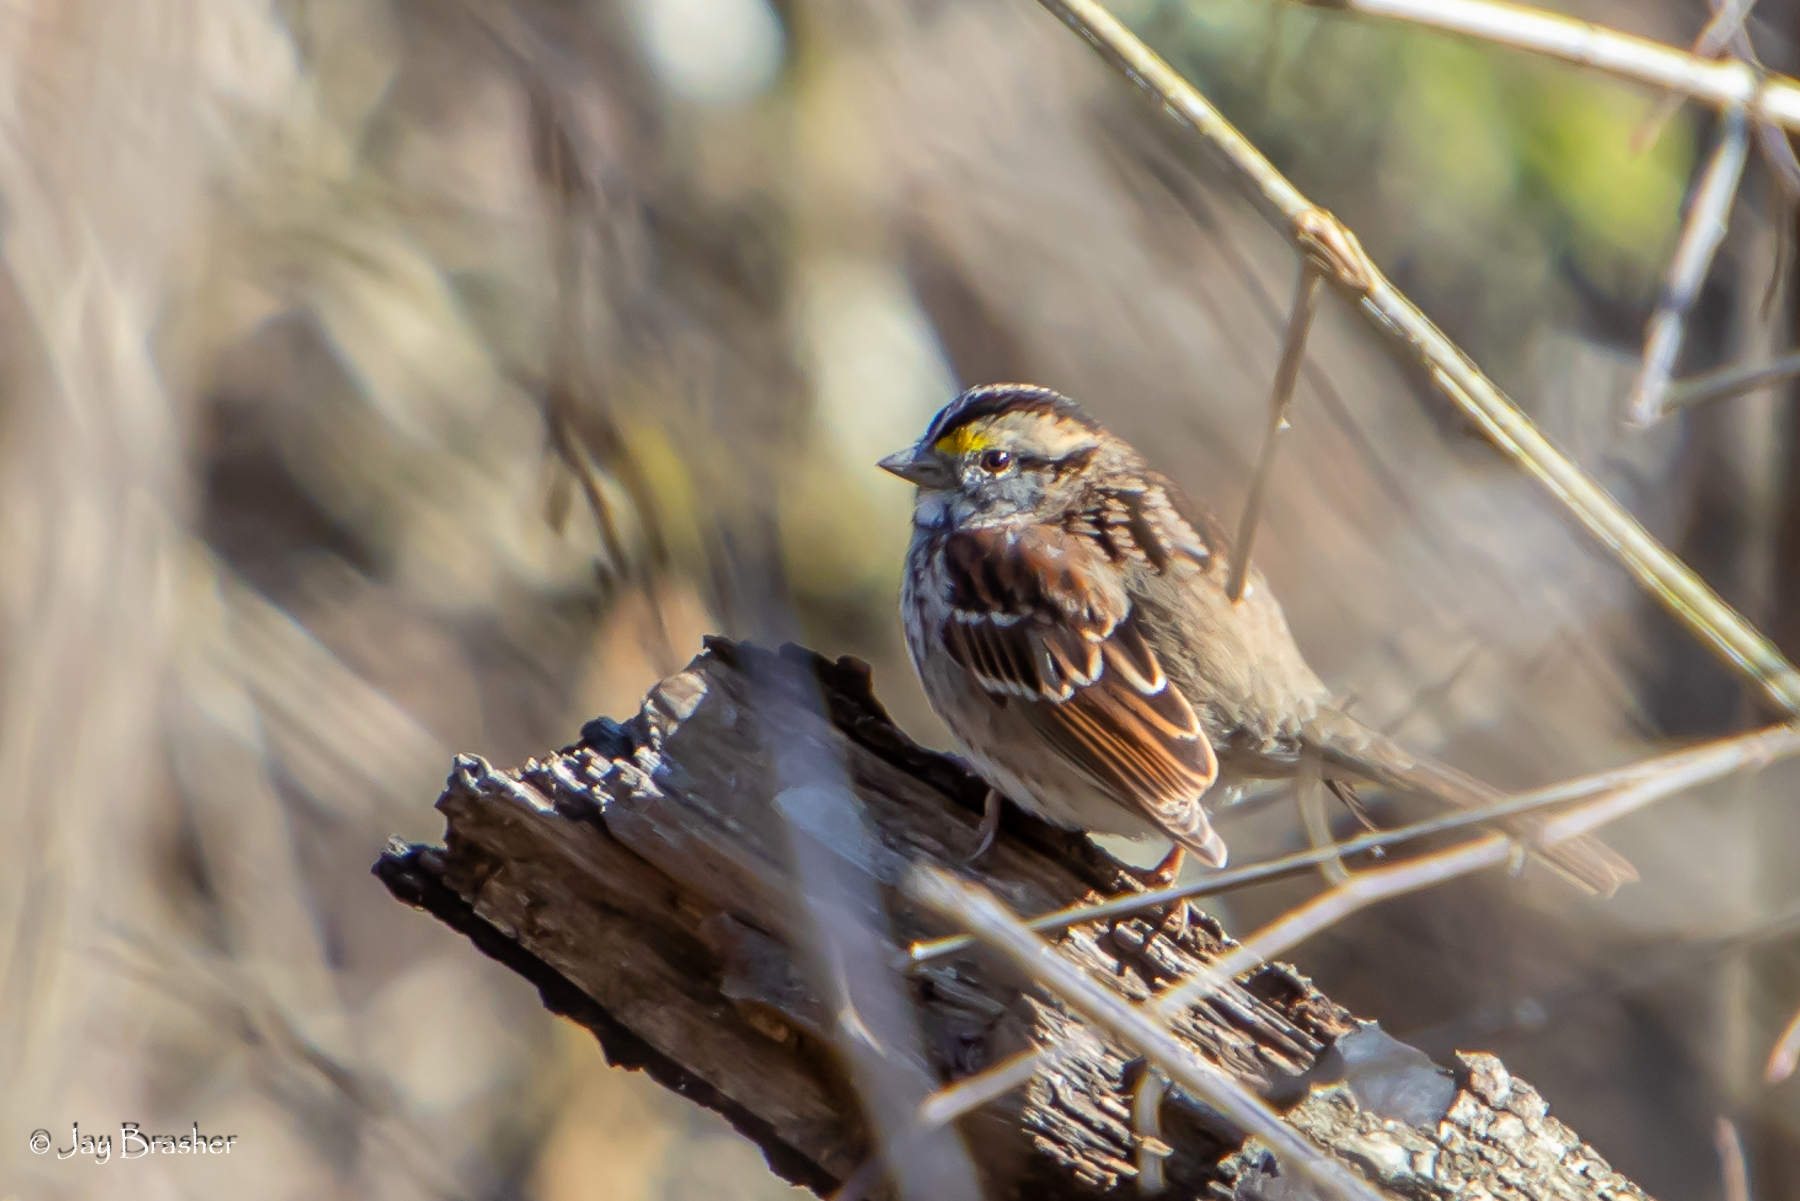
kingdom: Animalia
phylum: Chordata
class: Aves
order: Passeriformes
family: Passerellidae
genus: Zonotrichia
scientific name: Zonotrichia albicollis
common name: White-throated sparrow
